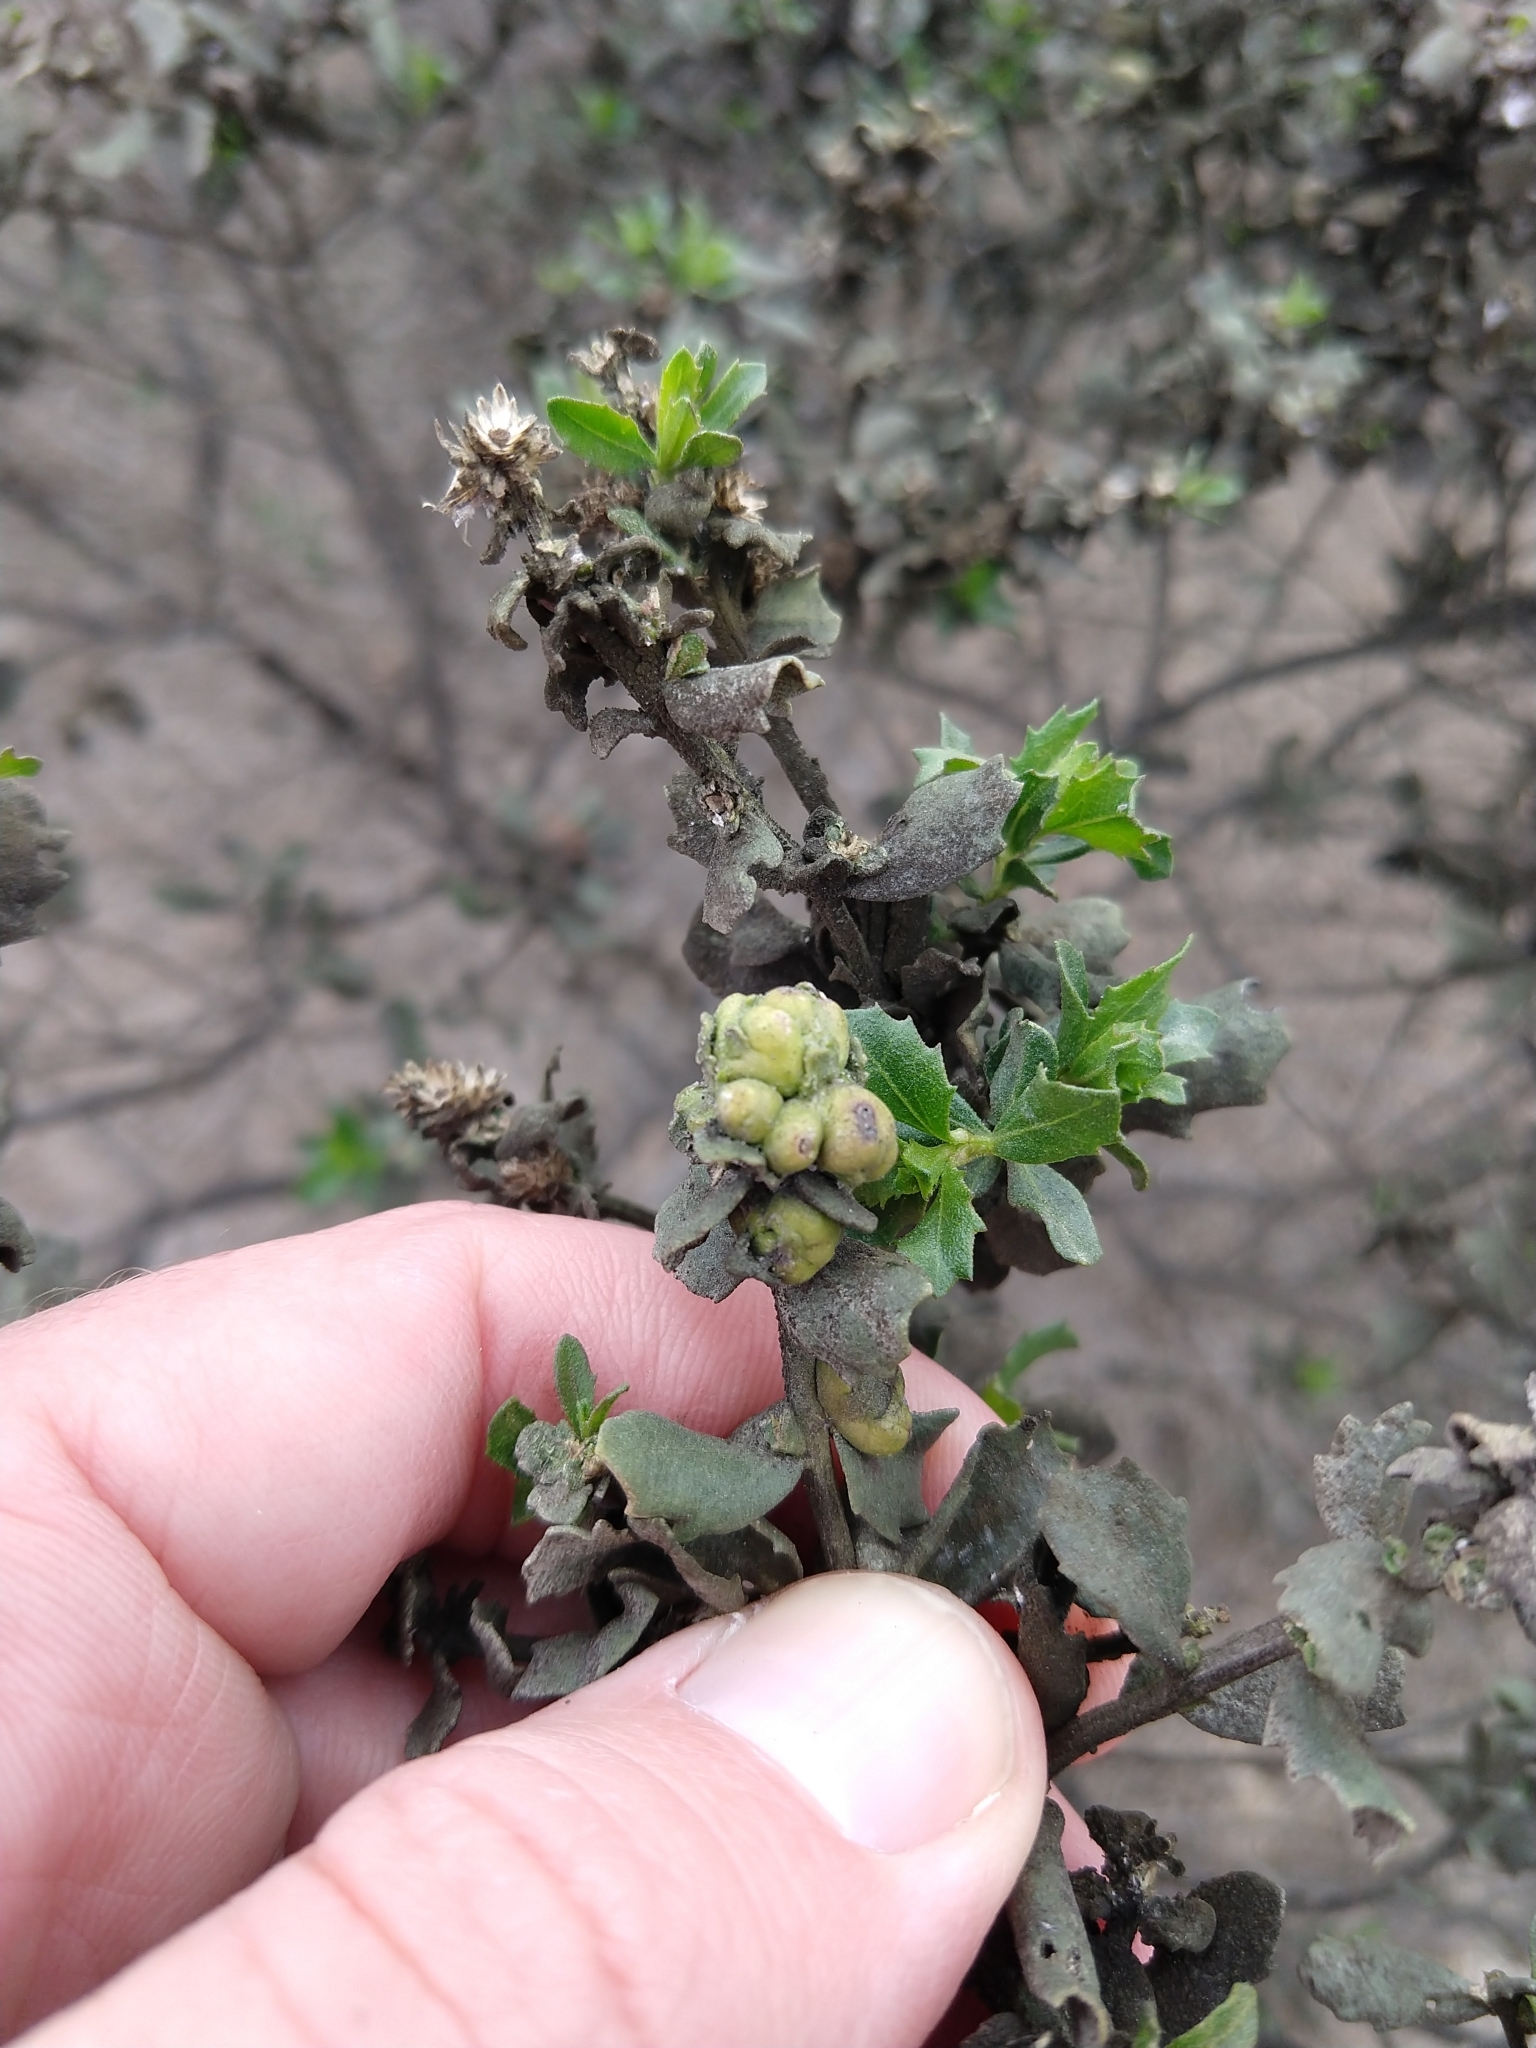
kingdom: Animalia
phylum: Arthropoda
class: Insecta
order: Diptera
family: Cecidomyiidae
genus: Rhopalomyia
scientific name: Rhopalomyia californica
